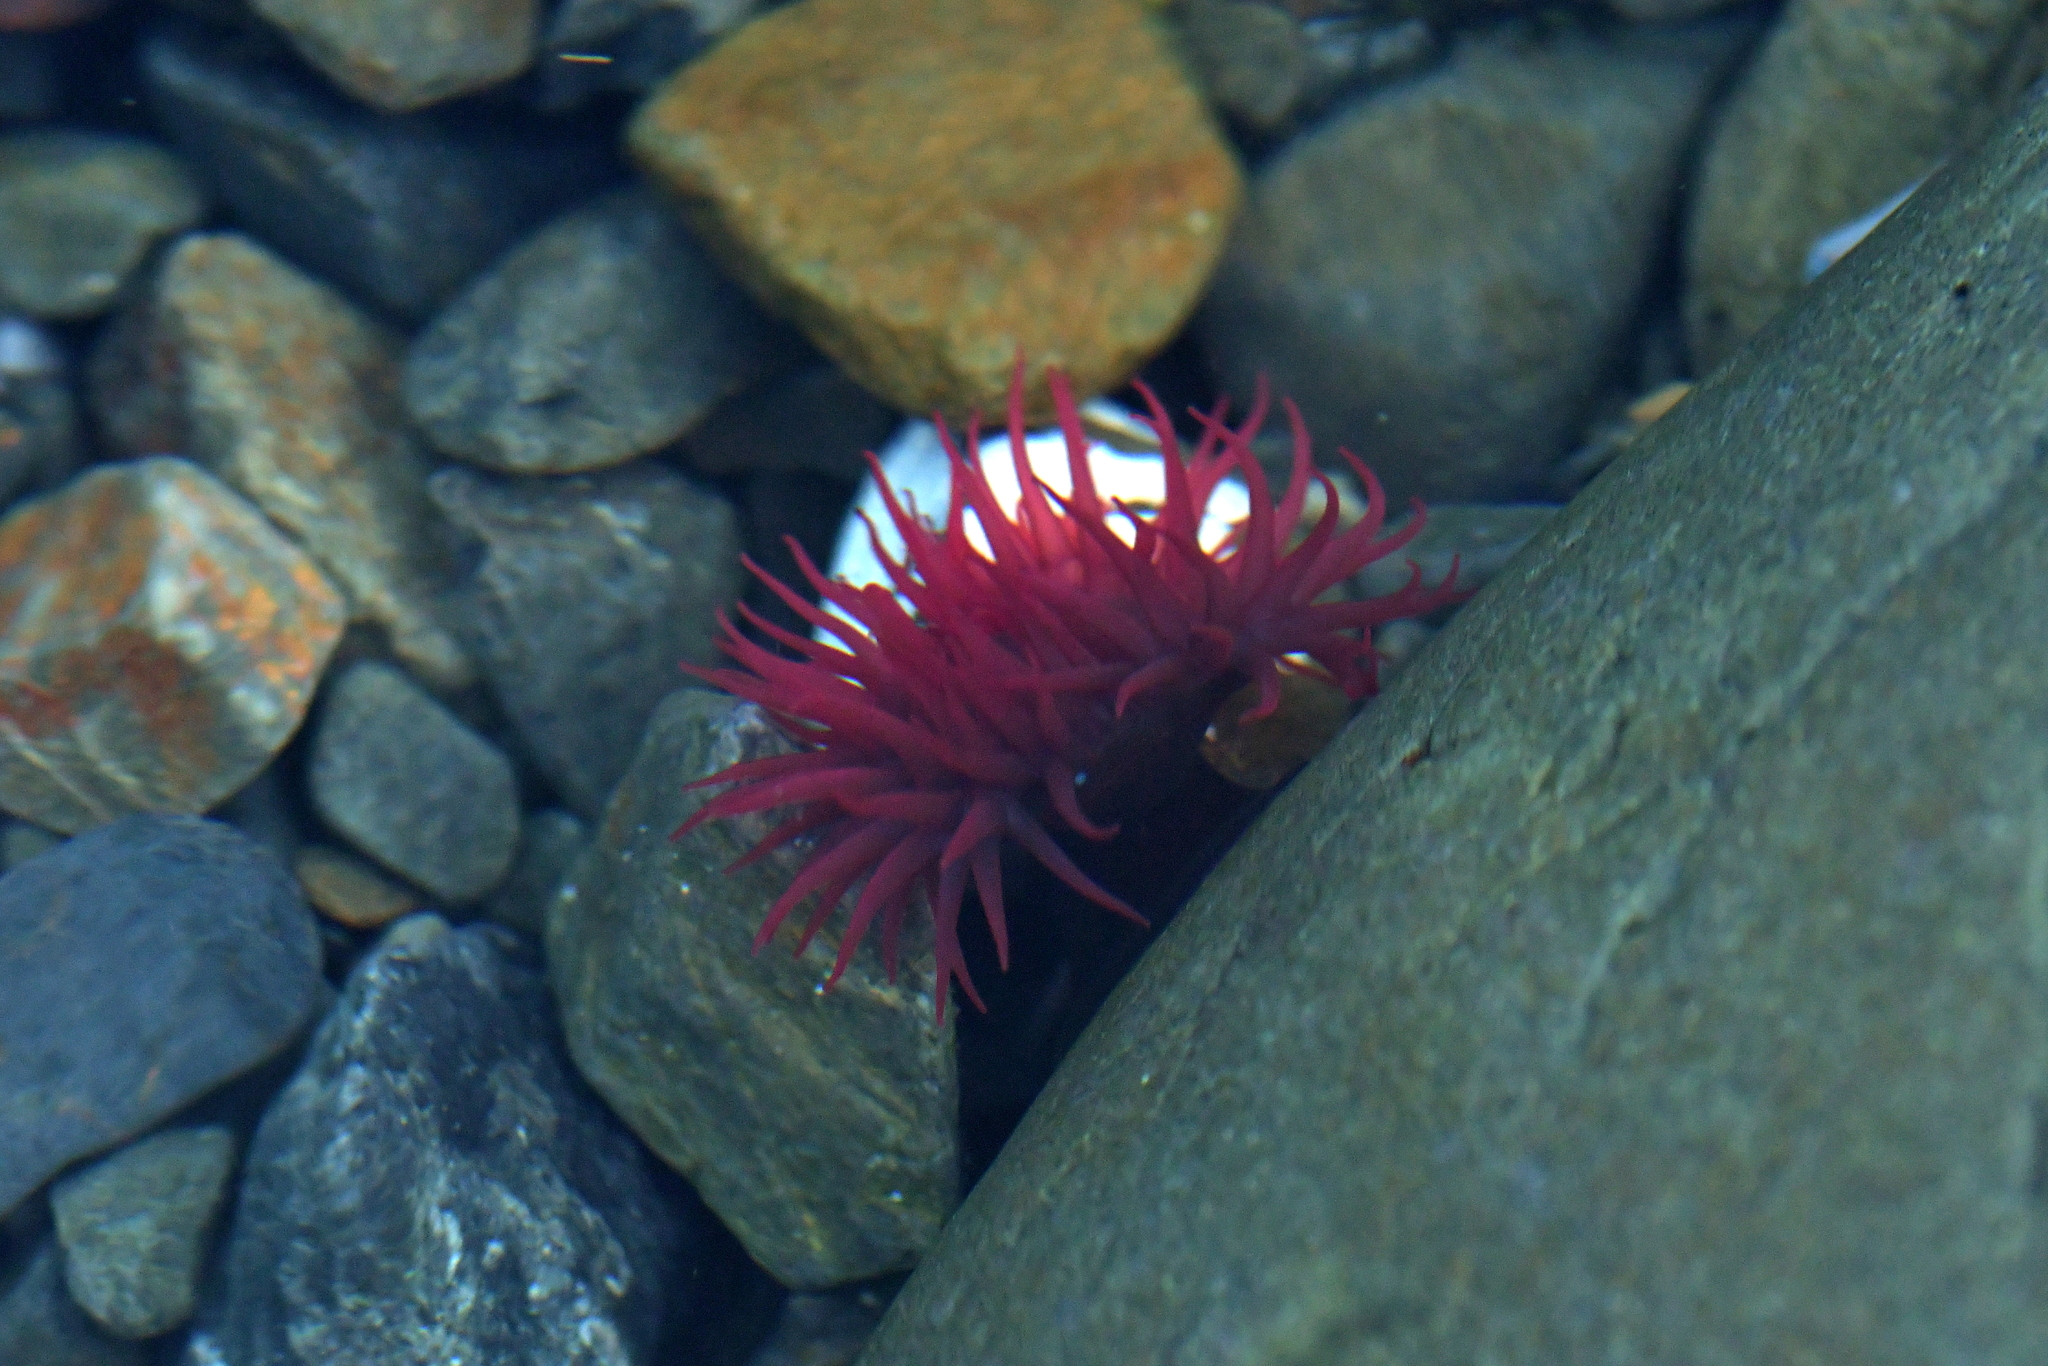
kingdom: Animalia
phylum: Cnidaria
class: Anthozoa
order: Actiniaria
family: Actiniidae
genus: Actinia
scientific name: Actinia tenebrosa
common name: Waratah anemone
